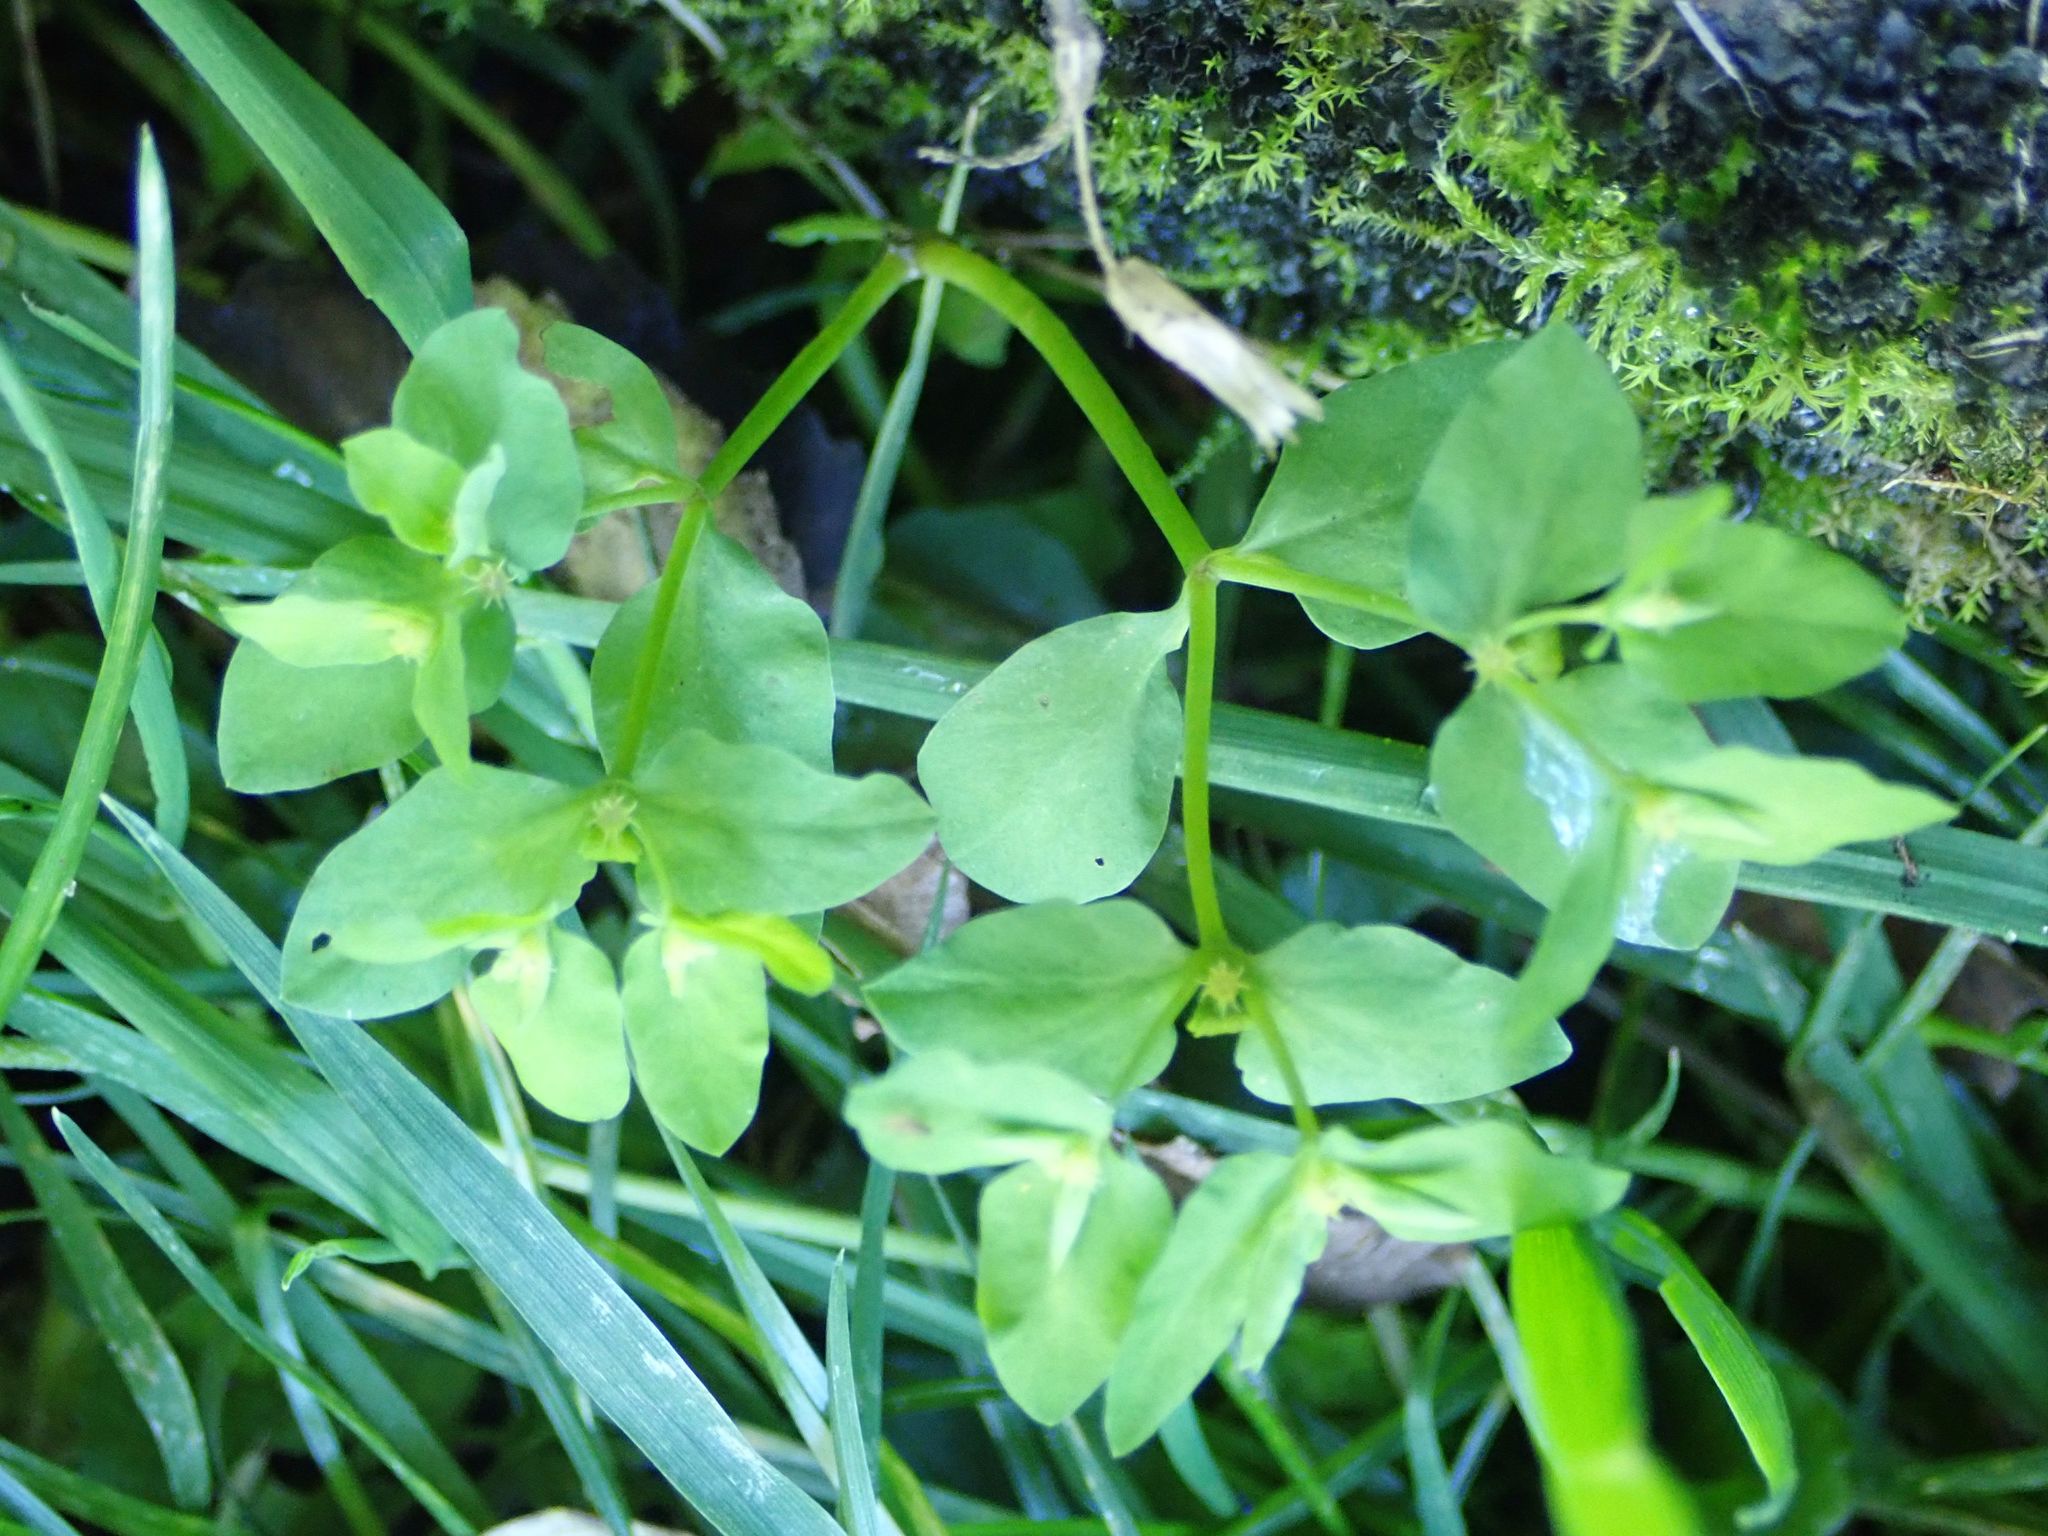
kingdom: Plantae
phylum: Tracheophyta
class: Magnoliopsida
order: Malpighiales
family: Euphorbiaceae
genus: Euphorbia
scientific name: Euphorbia peplus
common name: Petty spurge
